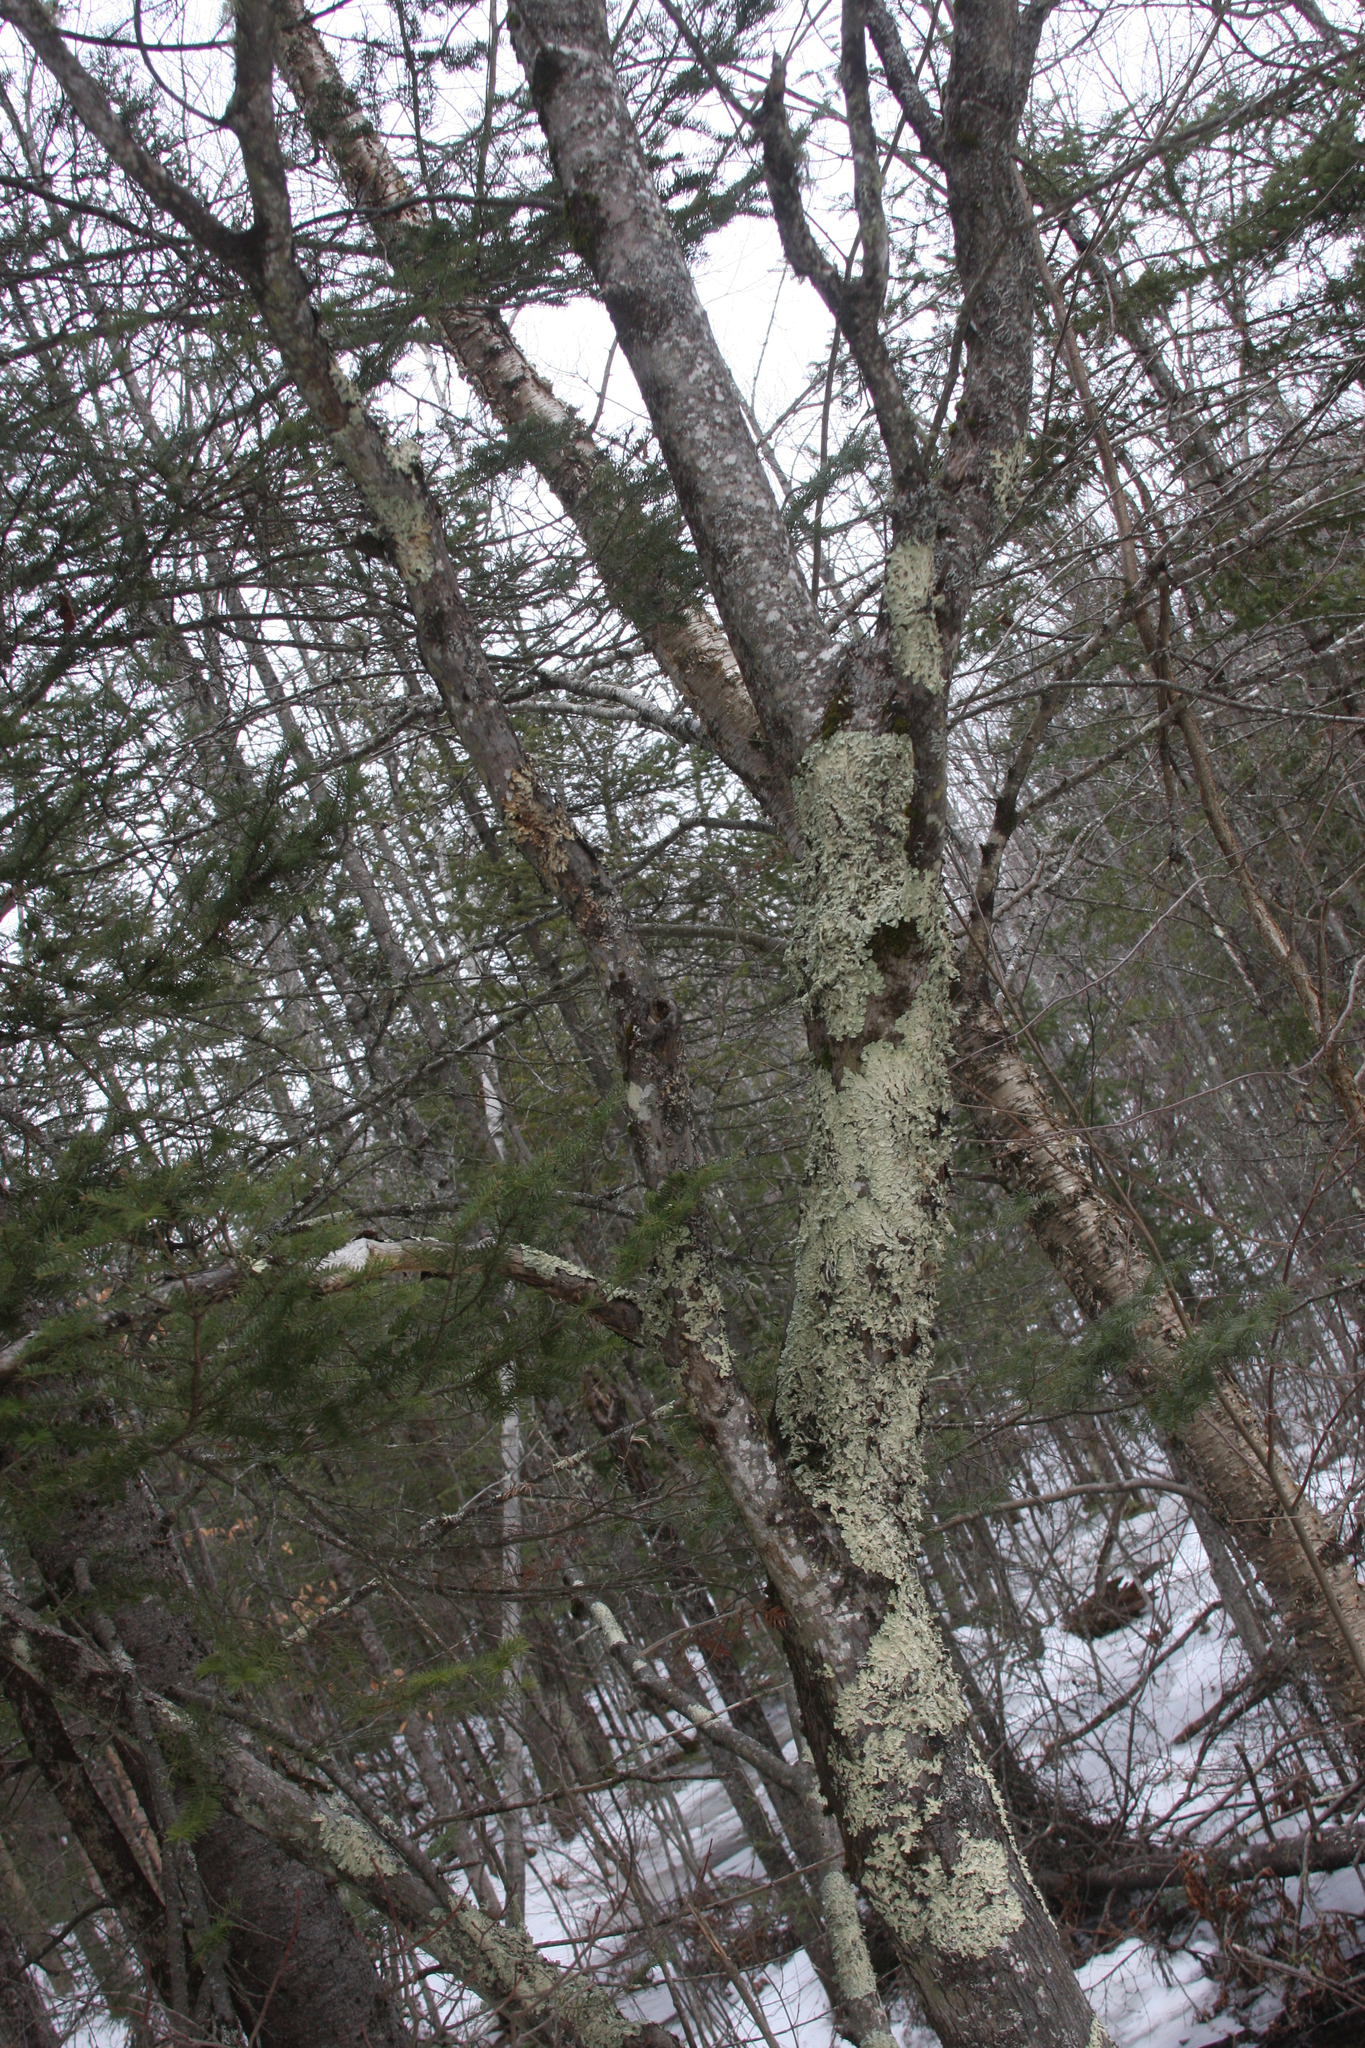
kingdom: Fungi
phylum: Ascomycota
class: Lecanoromycetes
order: Lecanorales
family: Parmeliaceae
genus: Flavoparmelia
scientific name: Flavoparmelia caperata
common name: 40-mile per hour lichen
